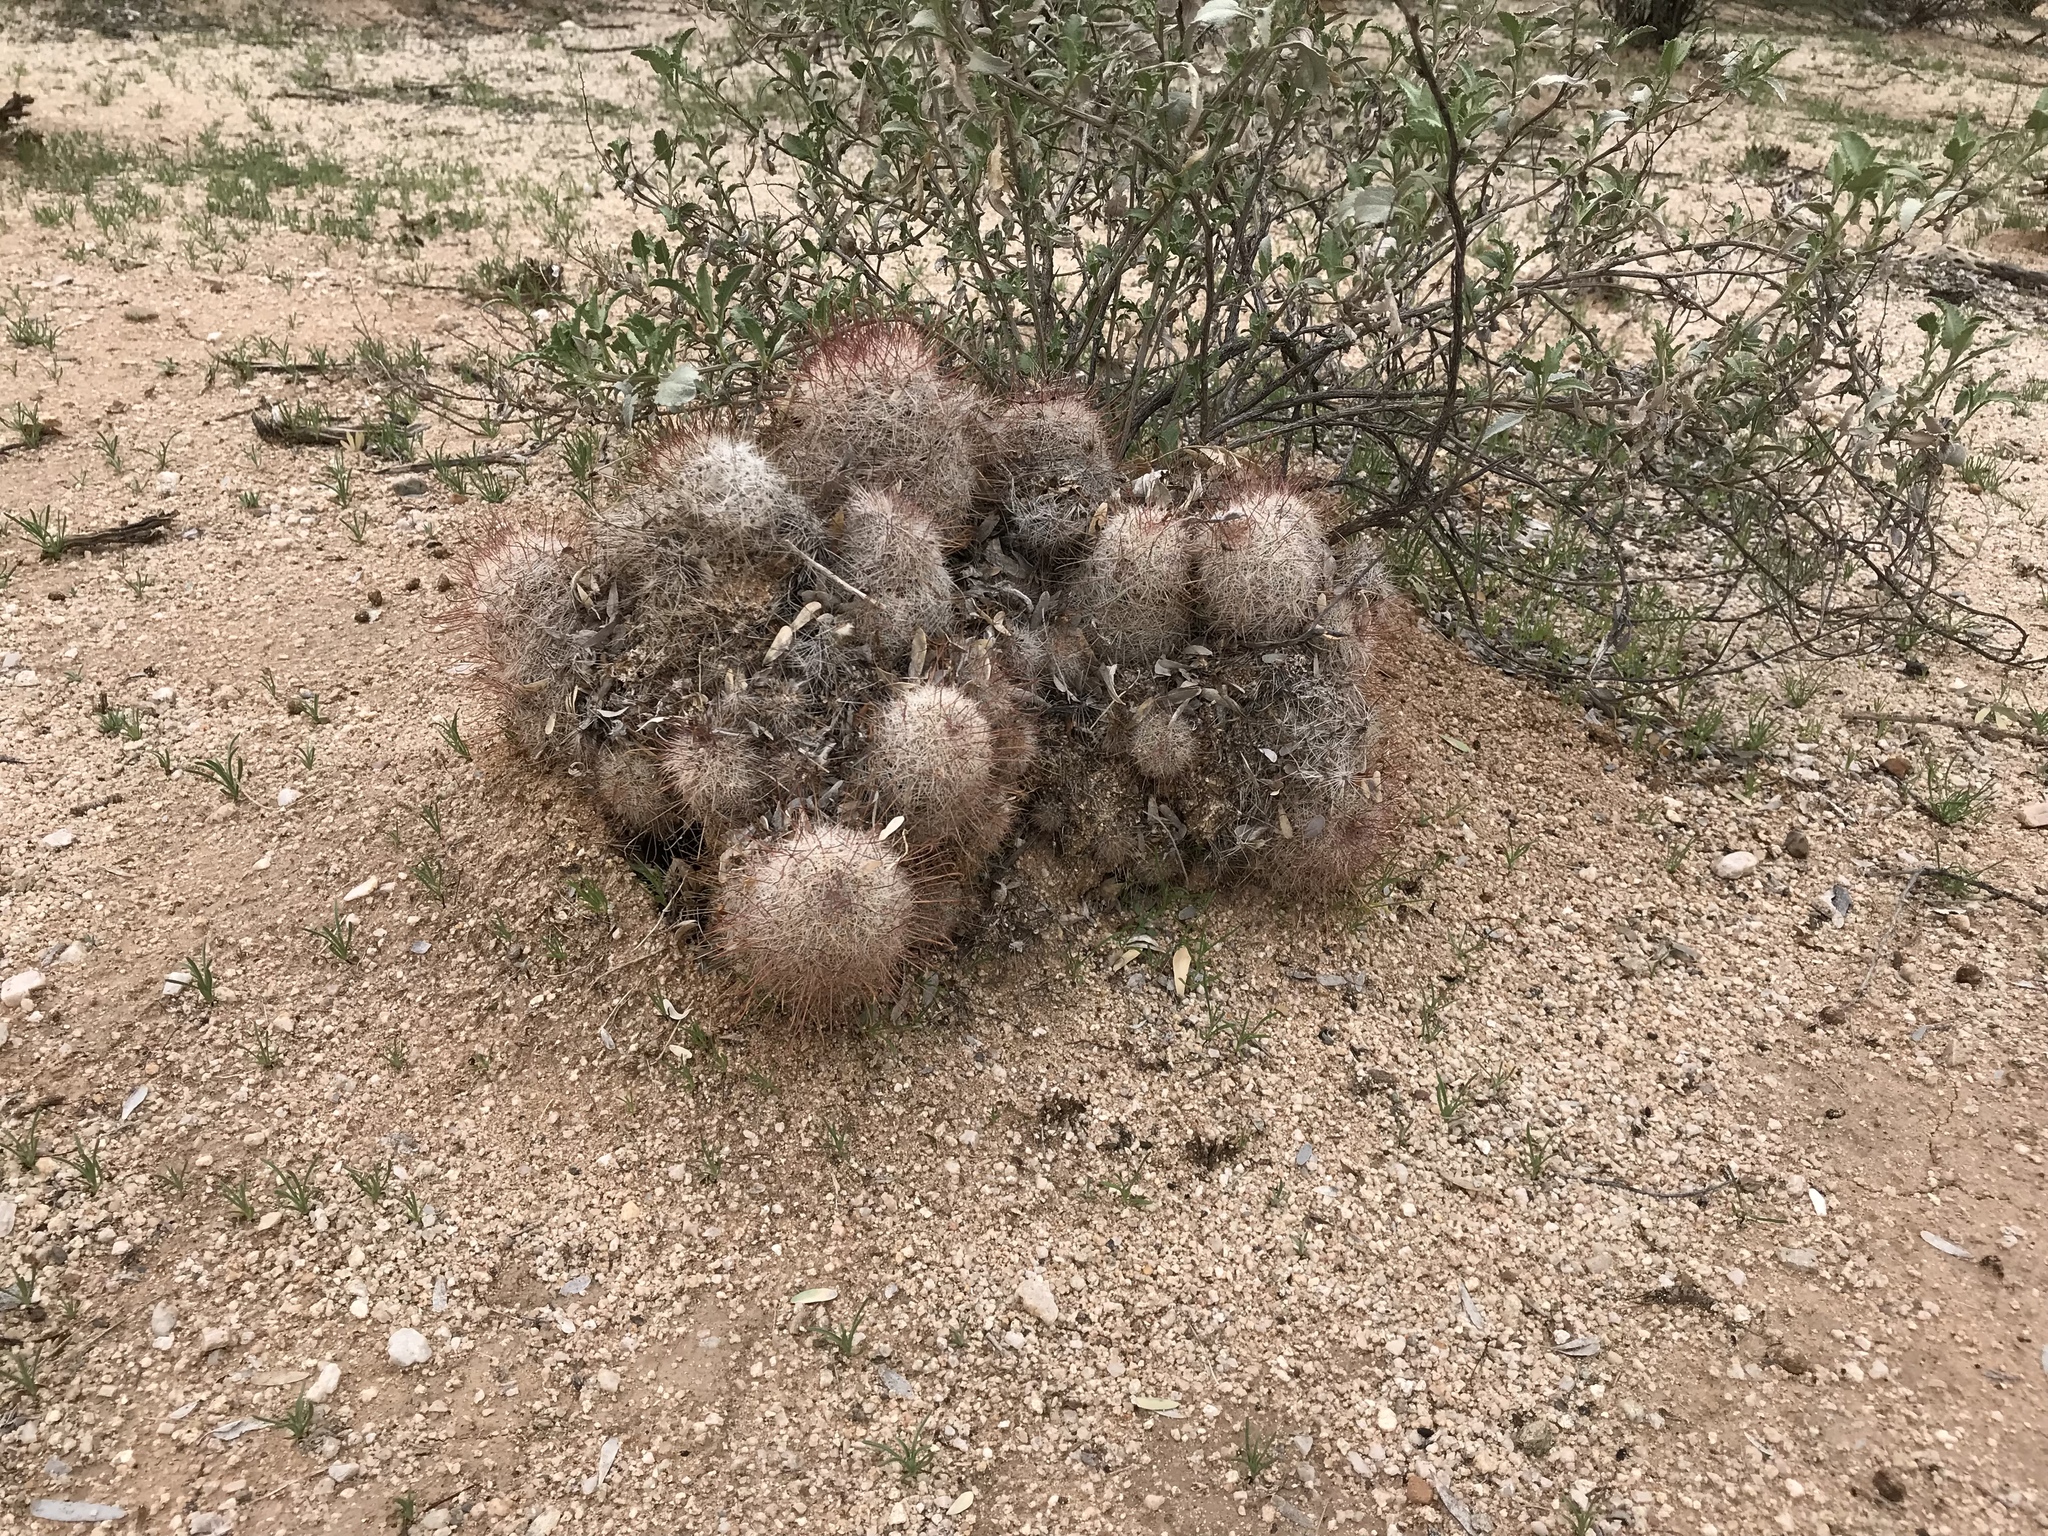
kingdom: Plantae
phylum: Tracheophyta
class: Magnoliopsida
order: Caryophyllales
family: Cactaceae
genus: Cochemiea
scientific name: Cochemiea grahamii
